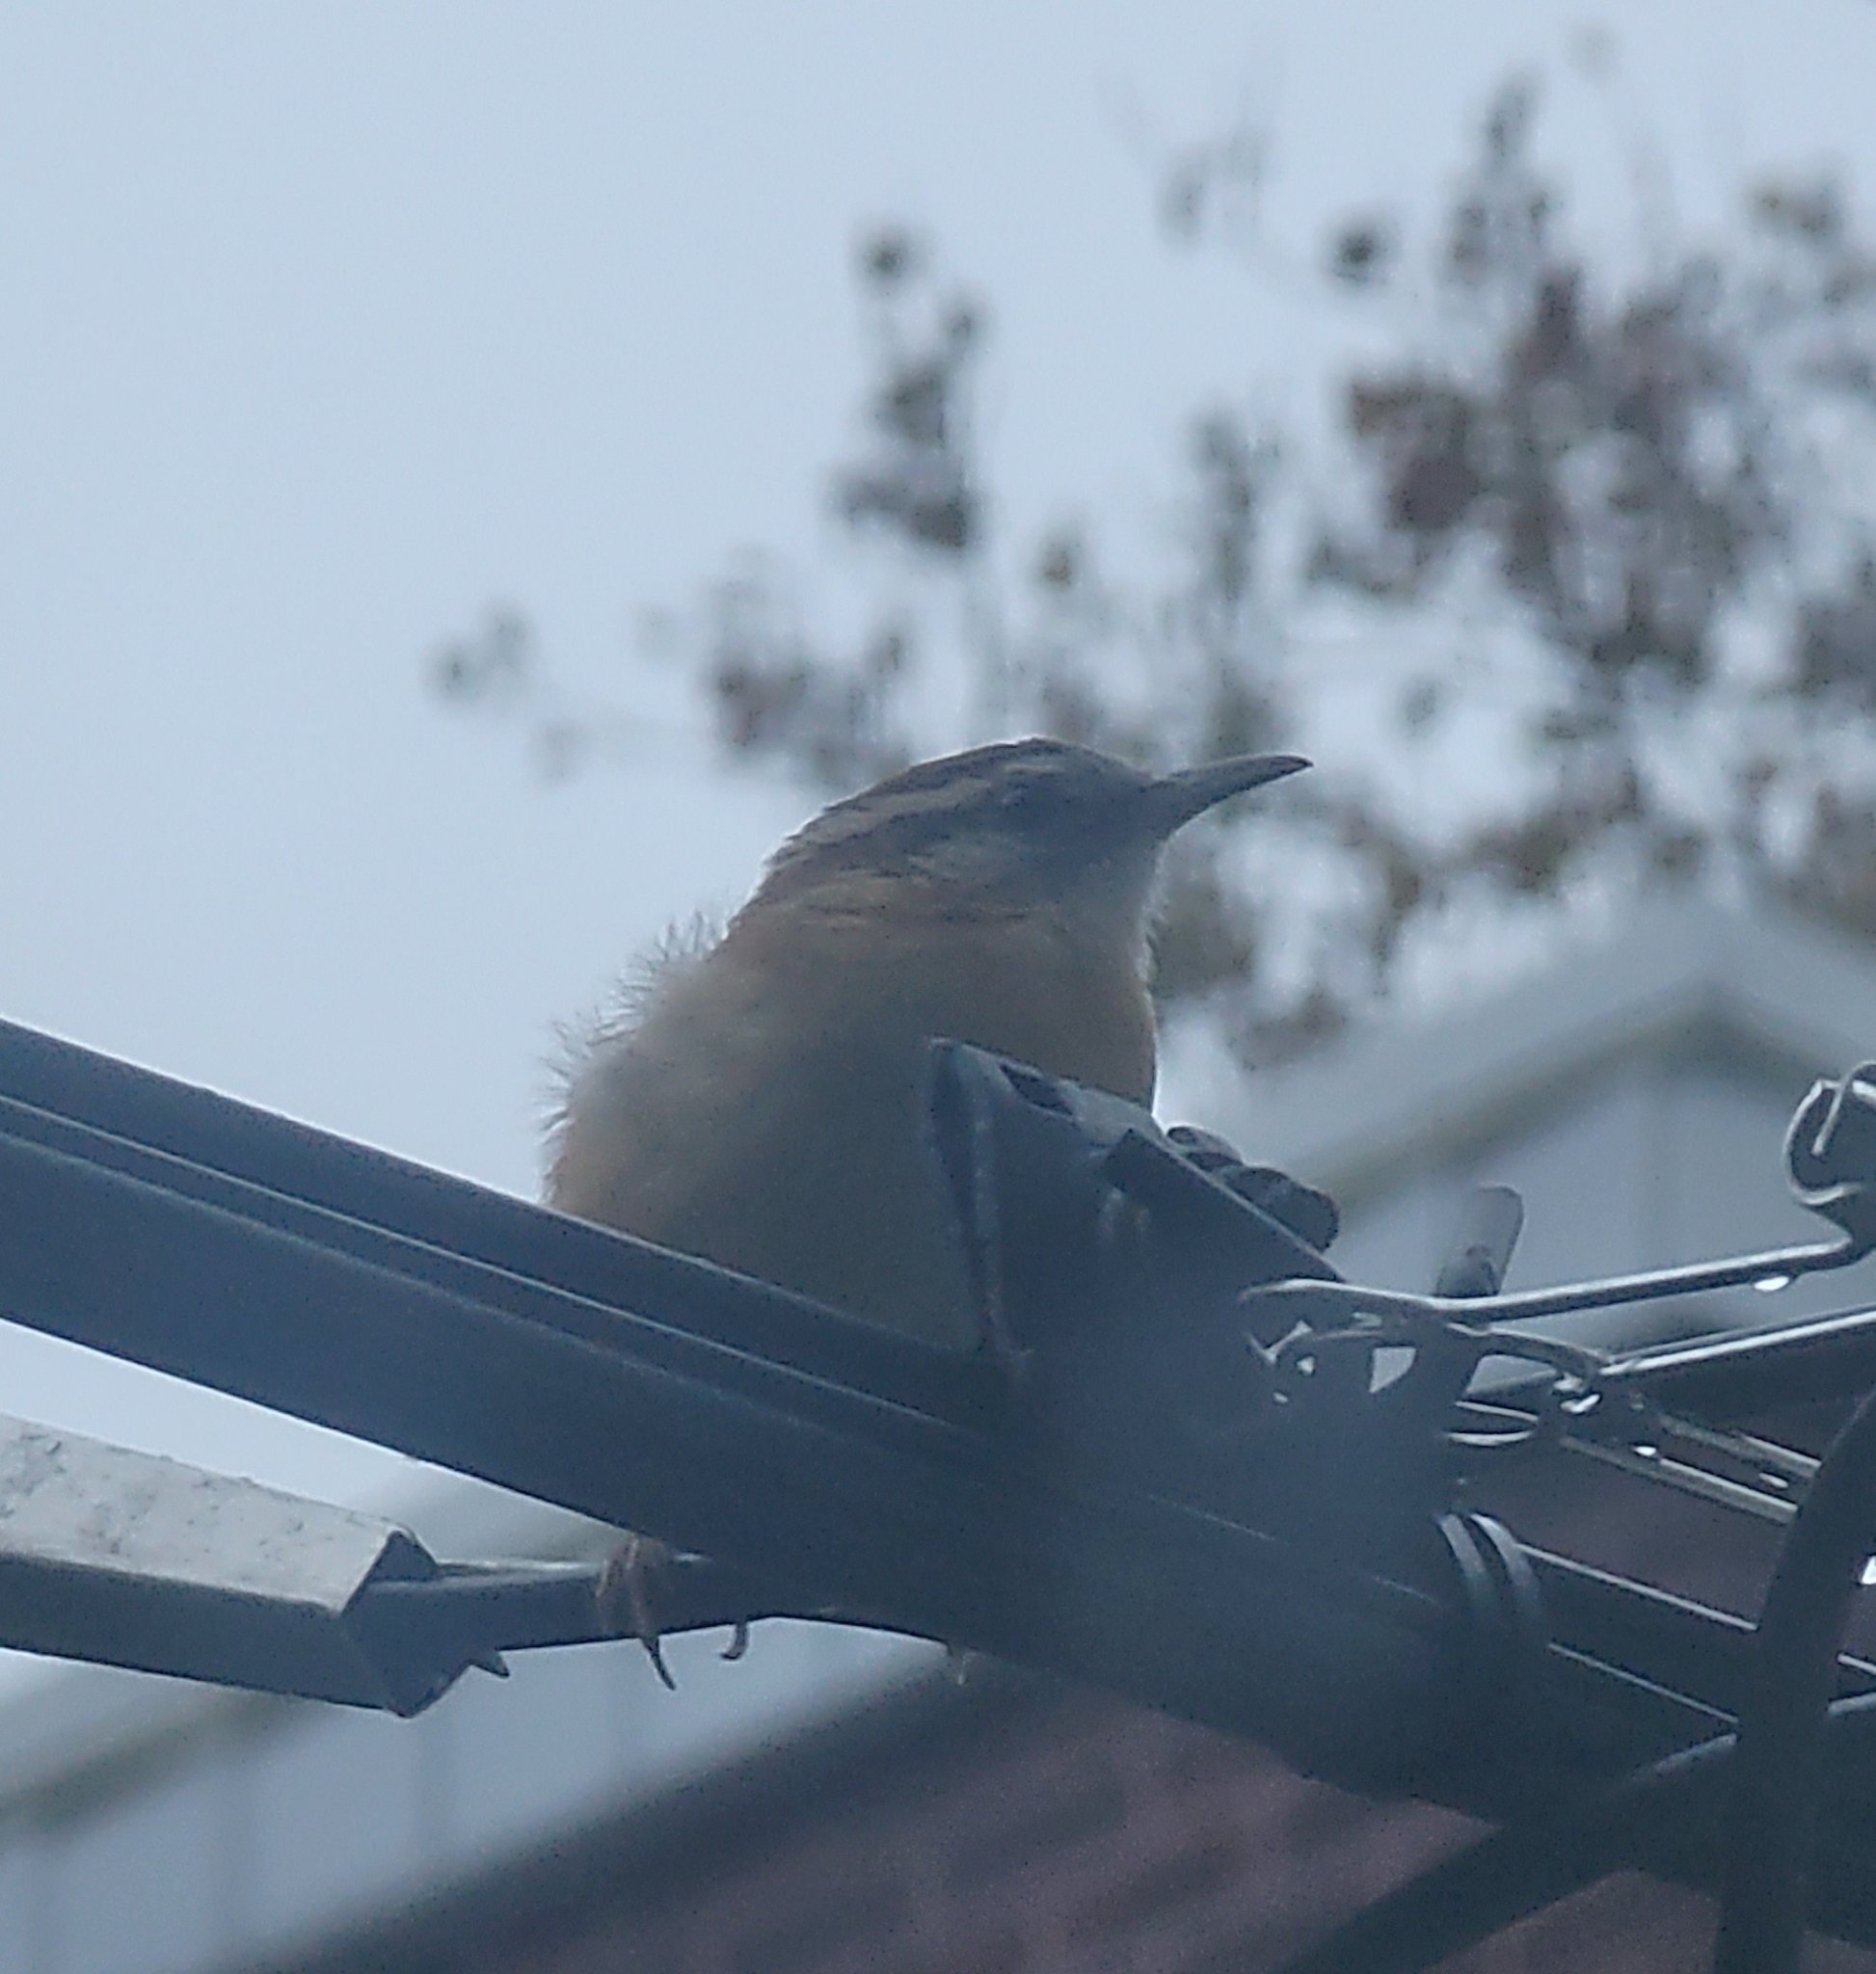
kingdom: Animalia
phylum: Chordata
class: Aves
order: Passeriformes
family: Troglodytidae
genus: Thryothorus
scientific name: Thryothorus ludovicianus
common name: Carolina wren
